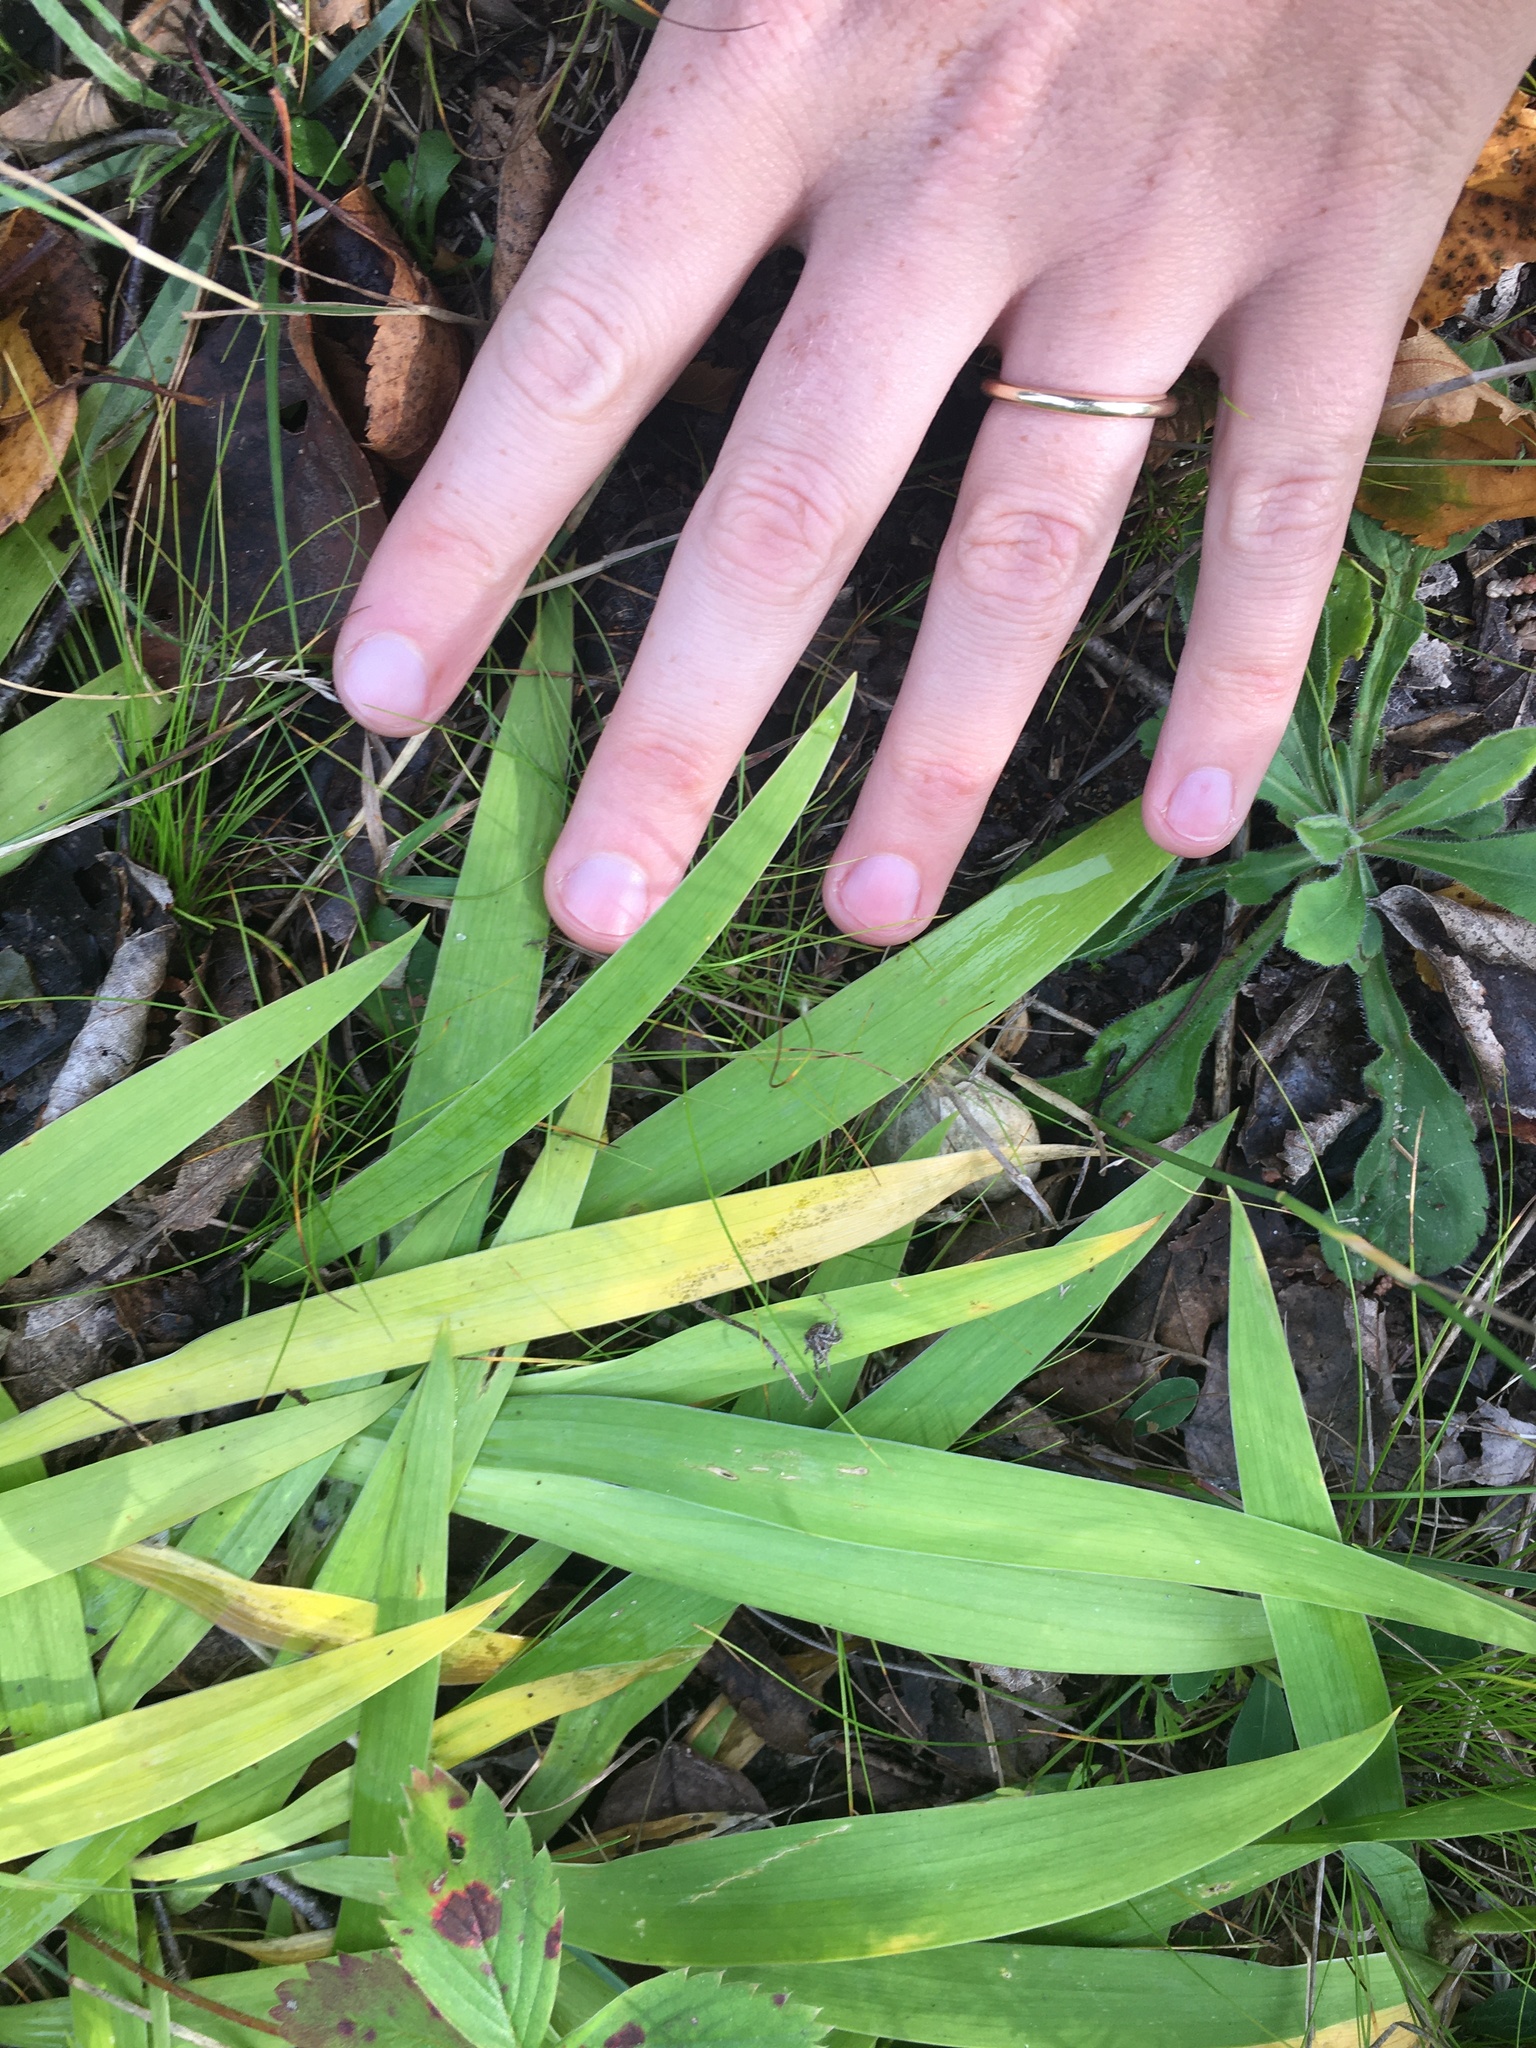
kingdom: Plantae
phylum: Tracheophyta
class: Liliopsida
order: Asparagales
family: Iridaceae
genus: Iris
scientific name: Iris lacustris
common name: Dwarf lake iris
